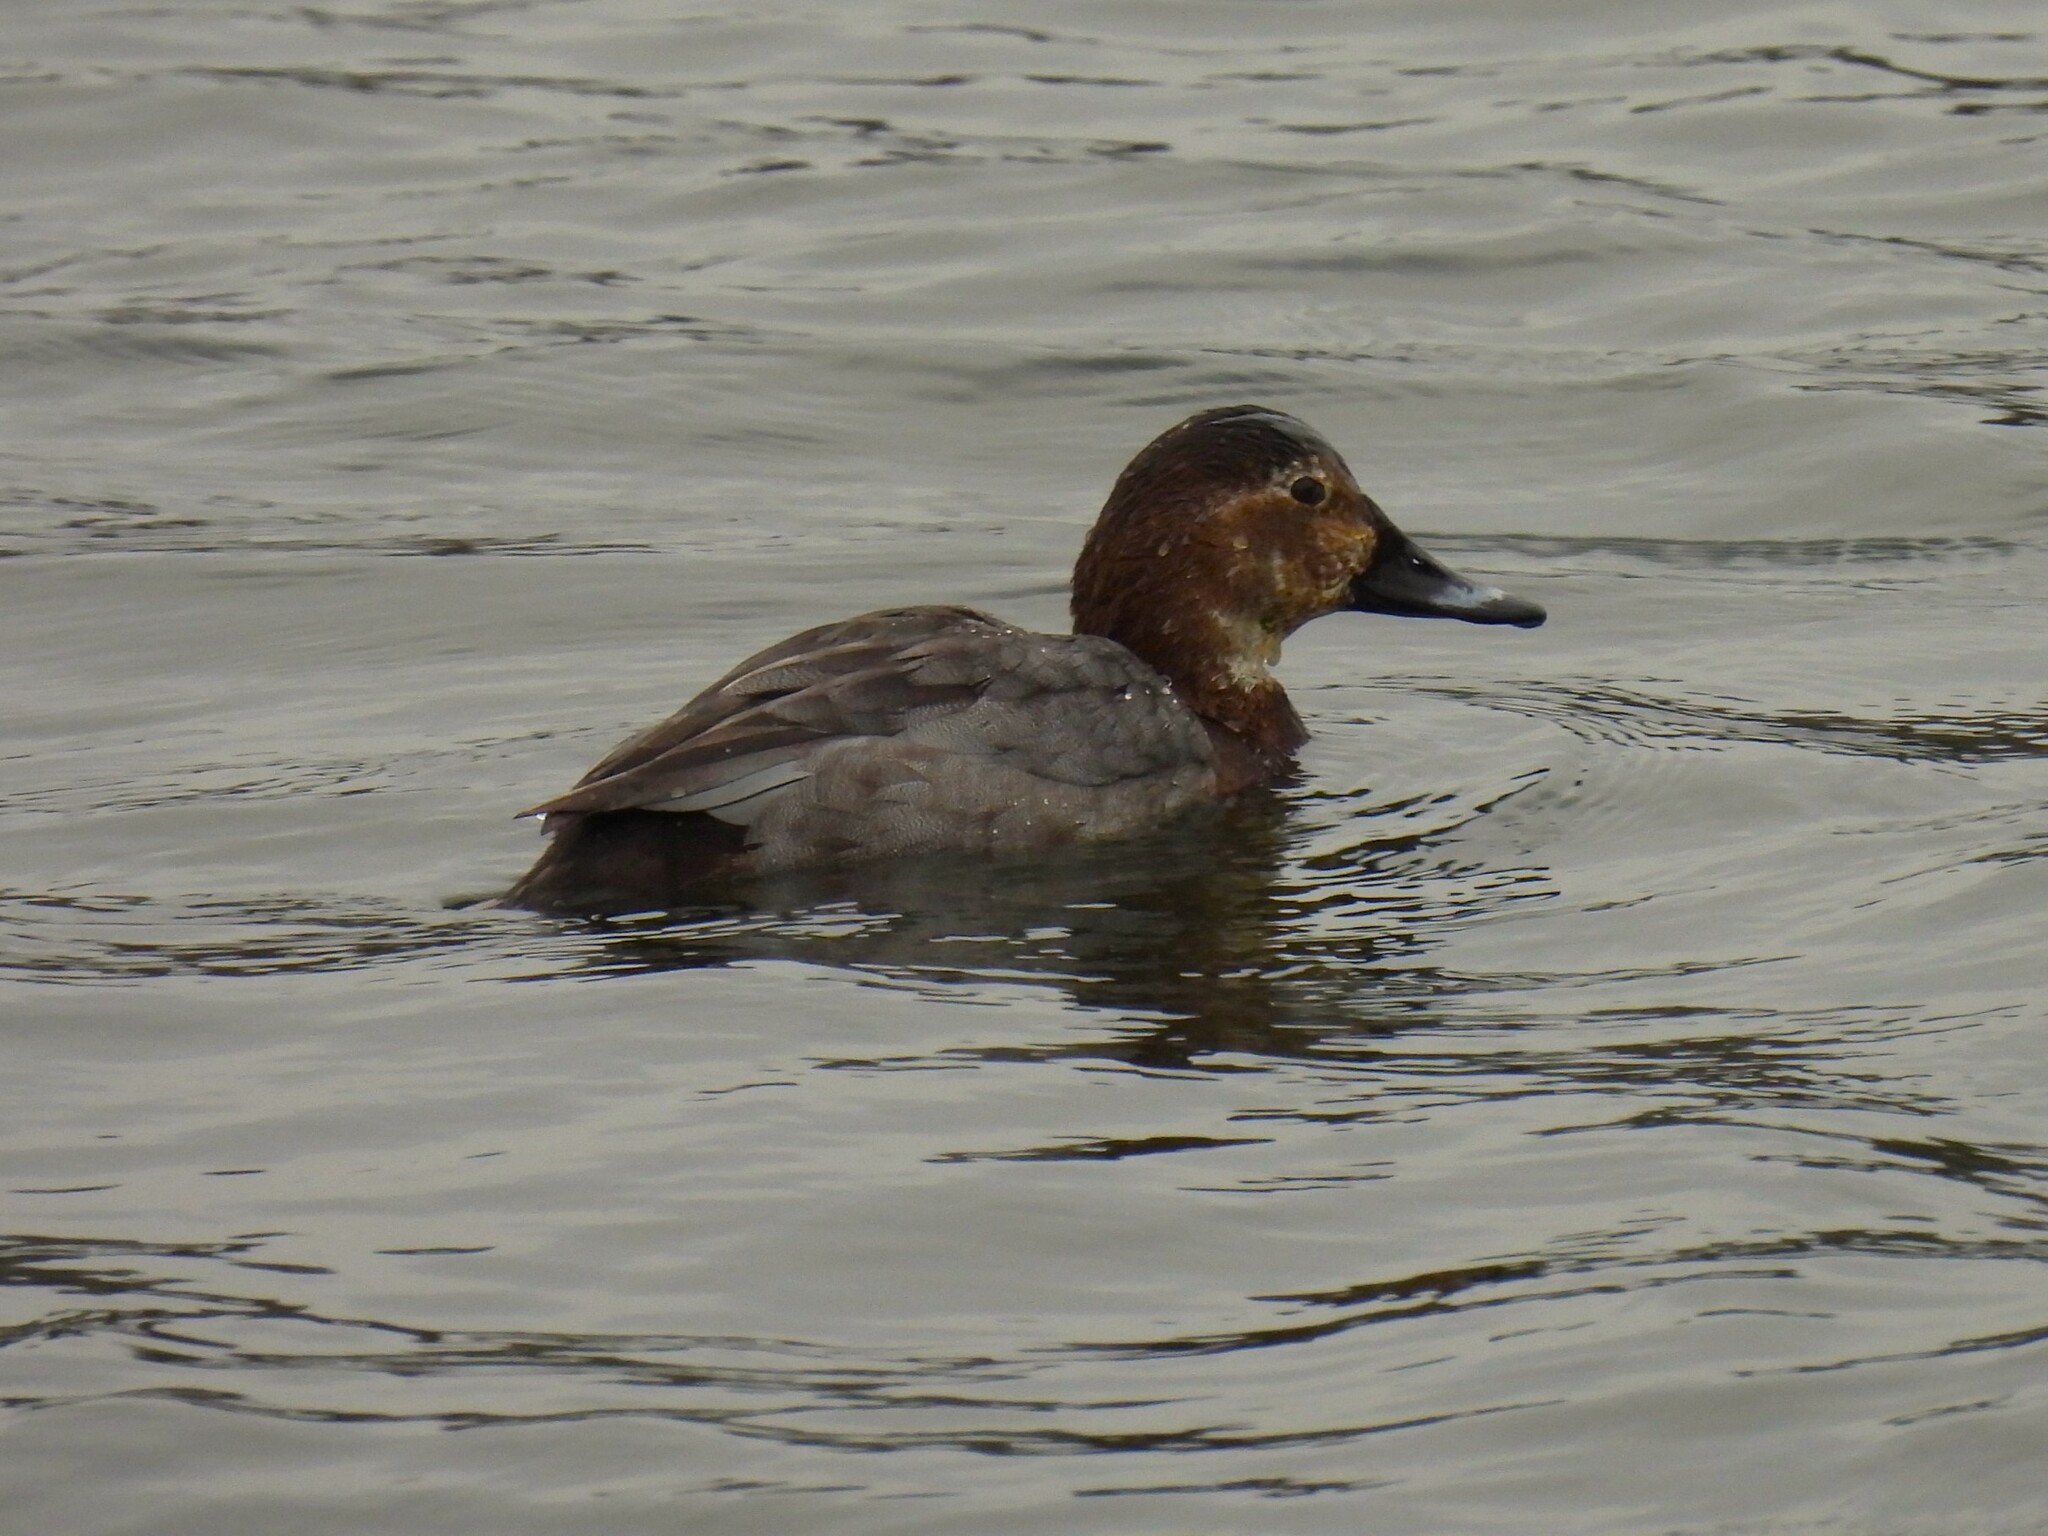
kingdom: Animalia
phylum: Chordata
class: Aves
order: Anseriformes
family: Anatidae
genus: Aythya
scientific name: Aythya ferina
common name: Common pochard
